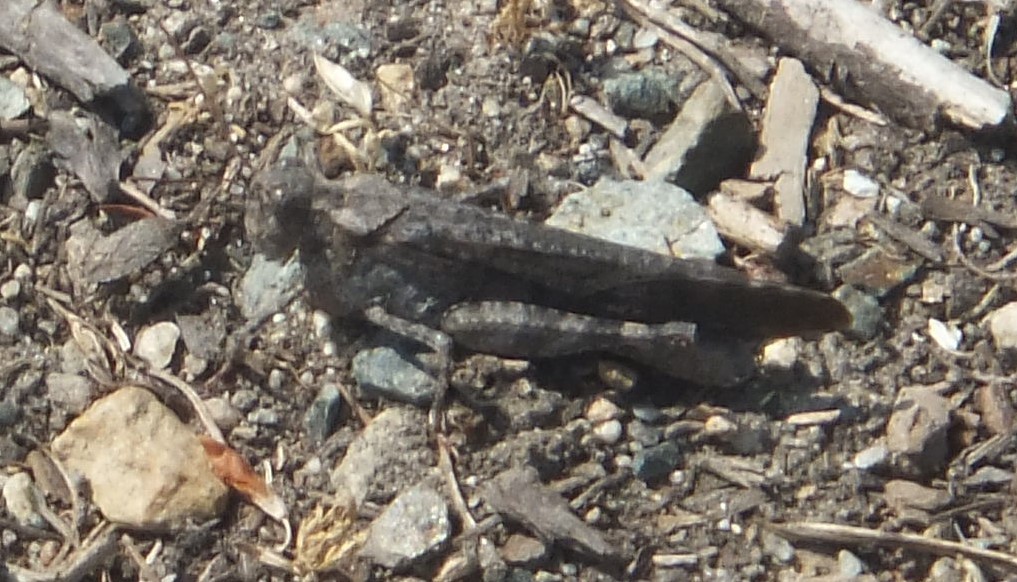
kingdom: Animalia
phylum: Arthropoda
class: Insecta
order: Orthoptera
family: Acrididae
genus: Trimerotropis
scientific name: Trimerotropis verruculata
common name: Crackling forest grasshopper
